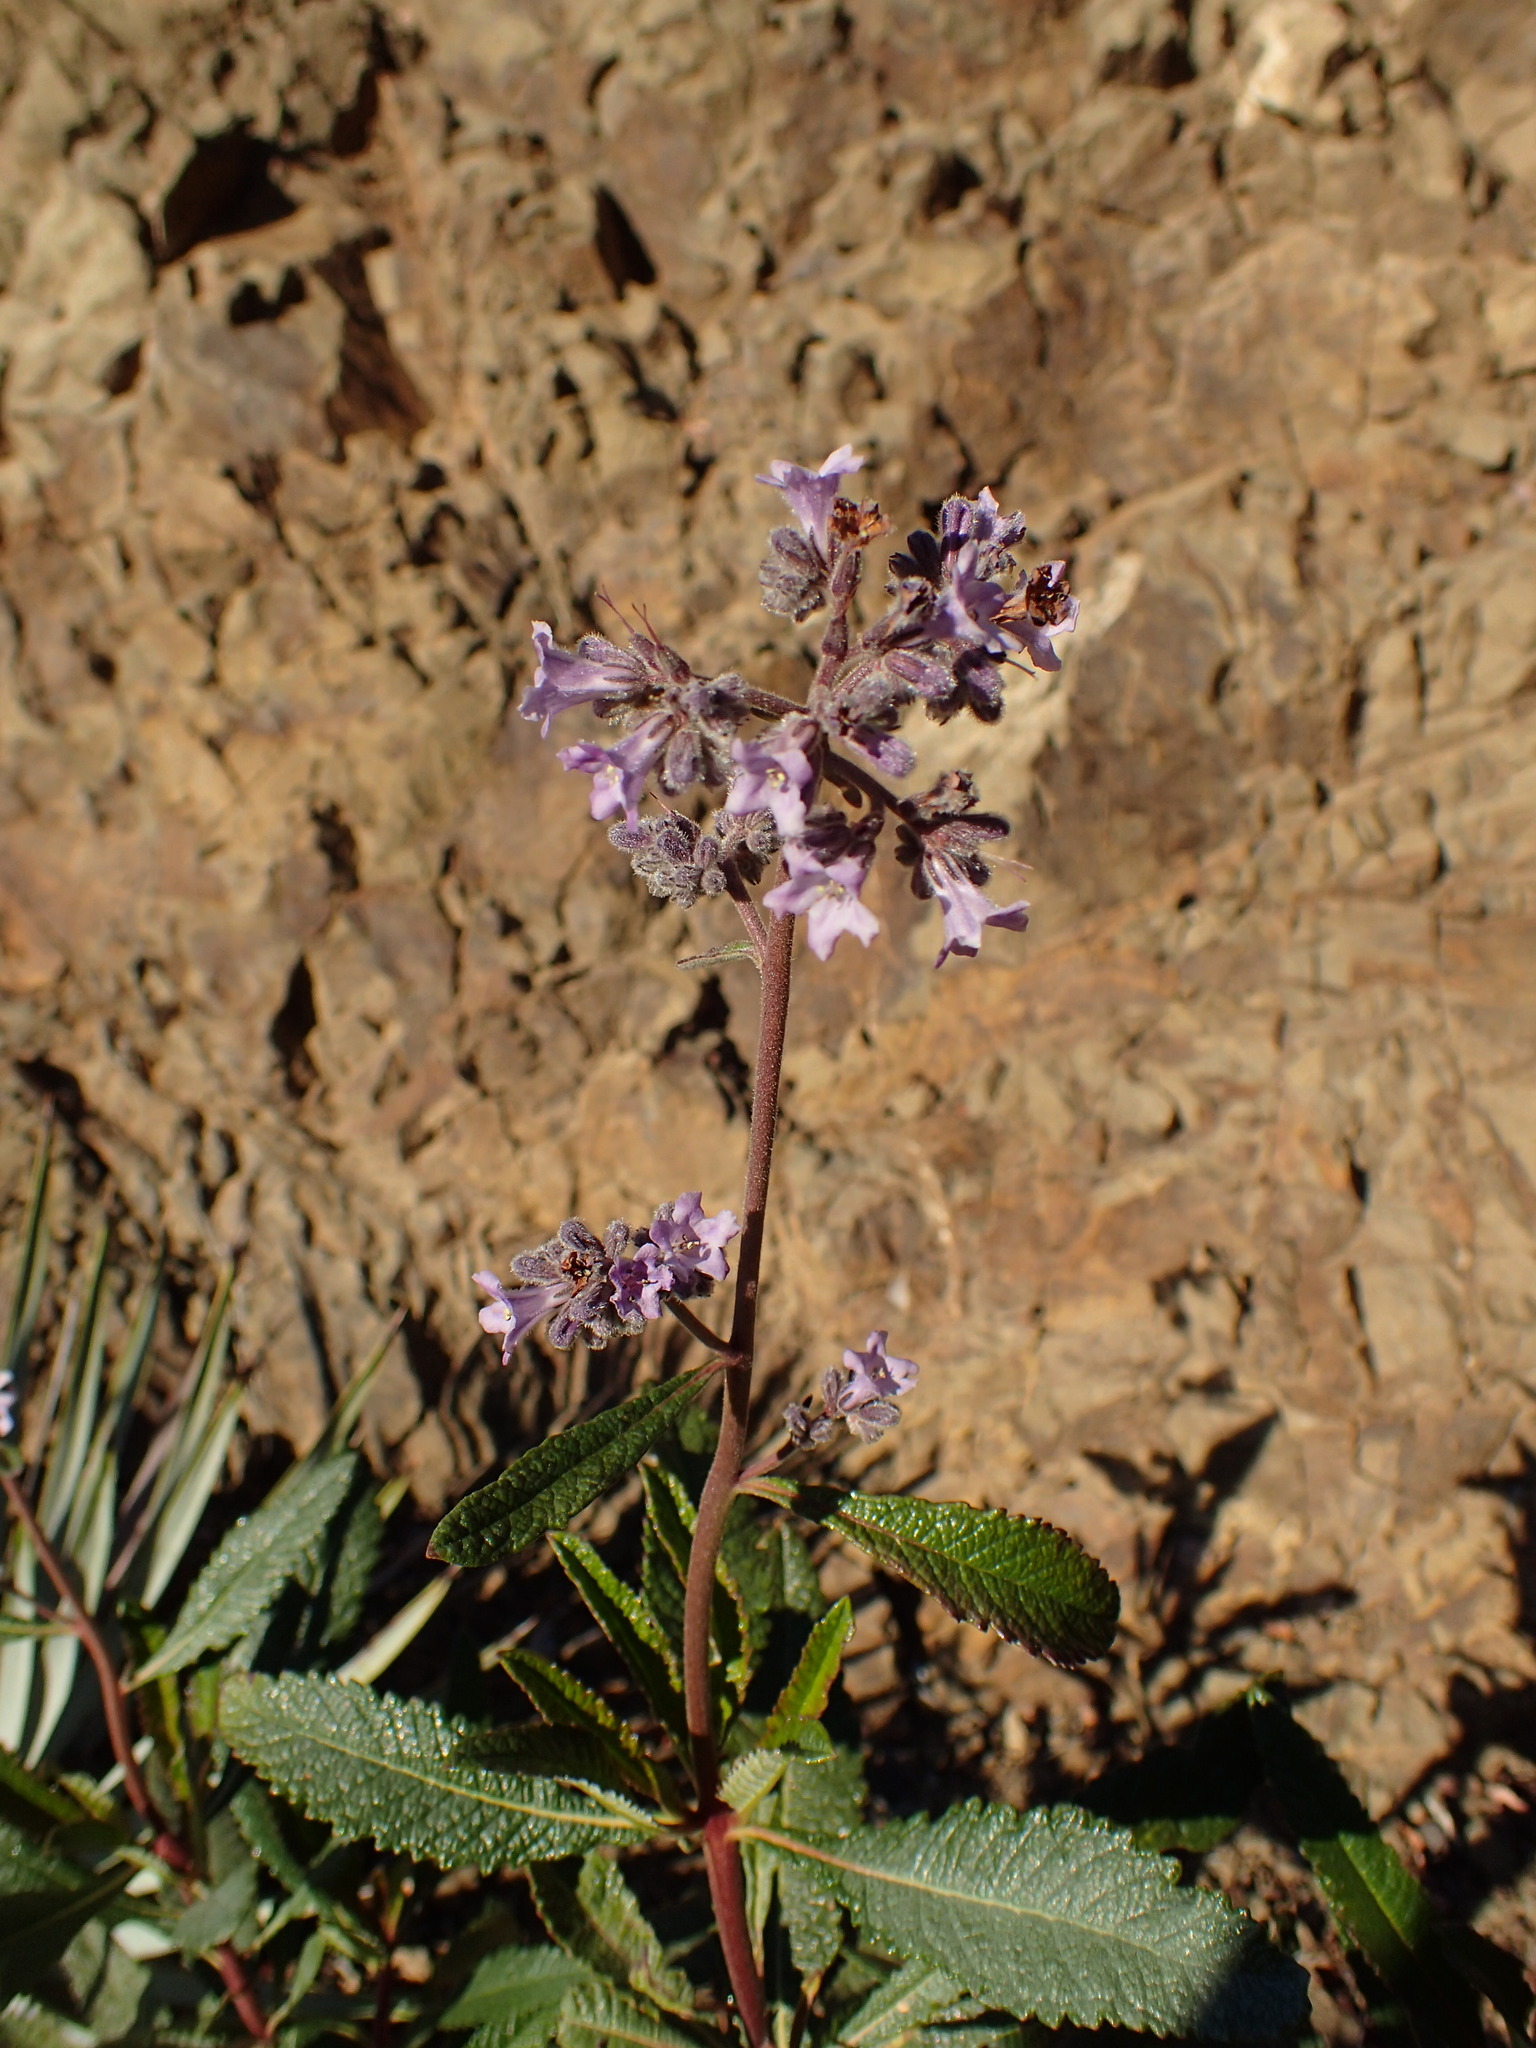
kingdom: Plantae
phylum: Tracheophyta
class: Magnoliopsida
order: Boraginales
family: Namaceae
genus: Eriodictyon
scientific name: Eriodictyon crassifolium
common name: Thick-leaf yerba-santa
